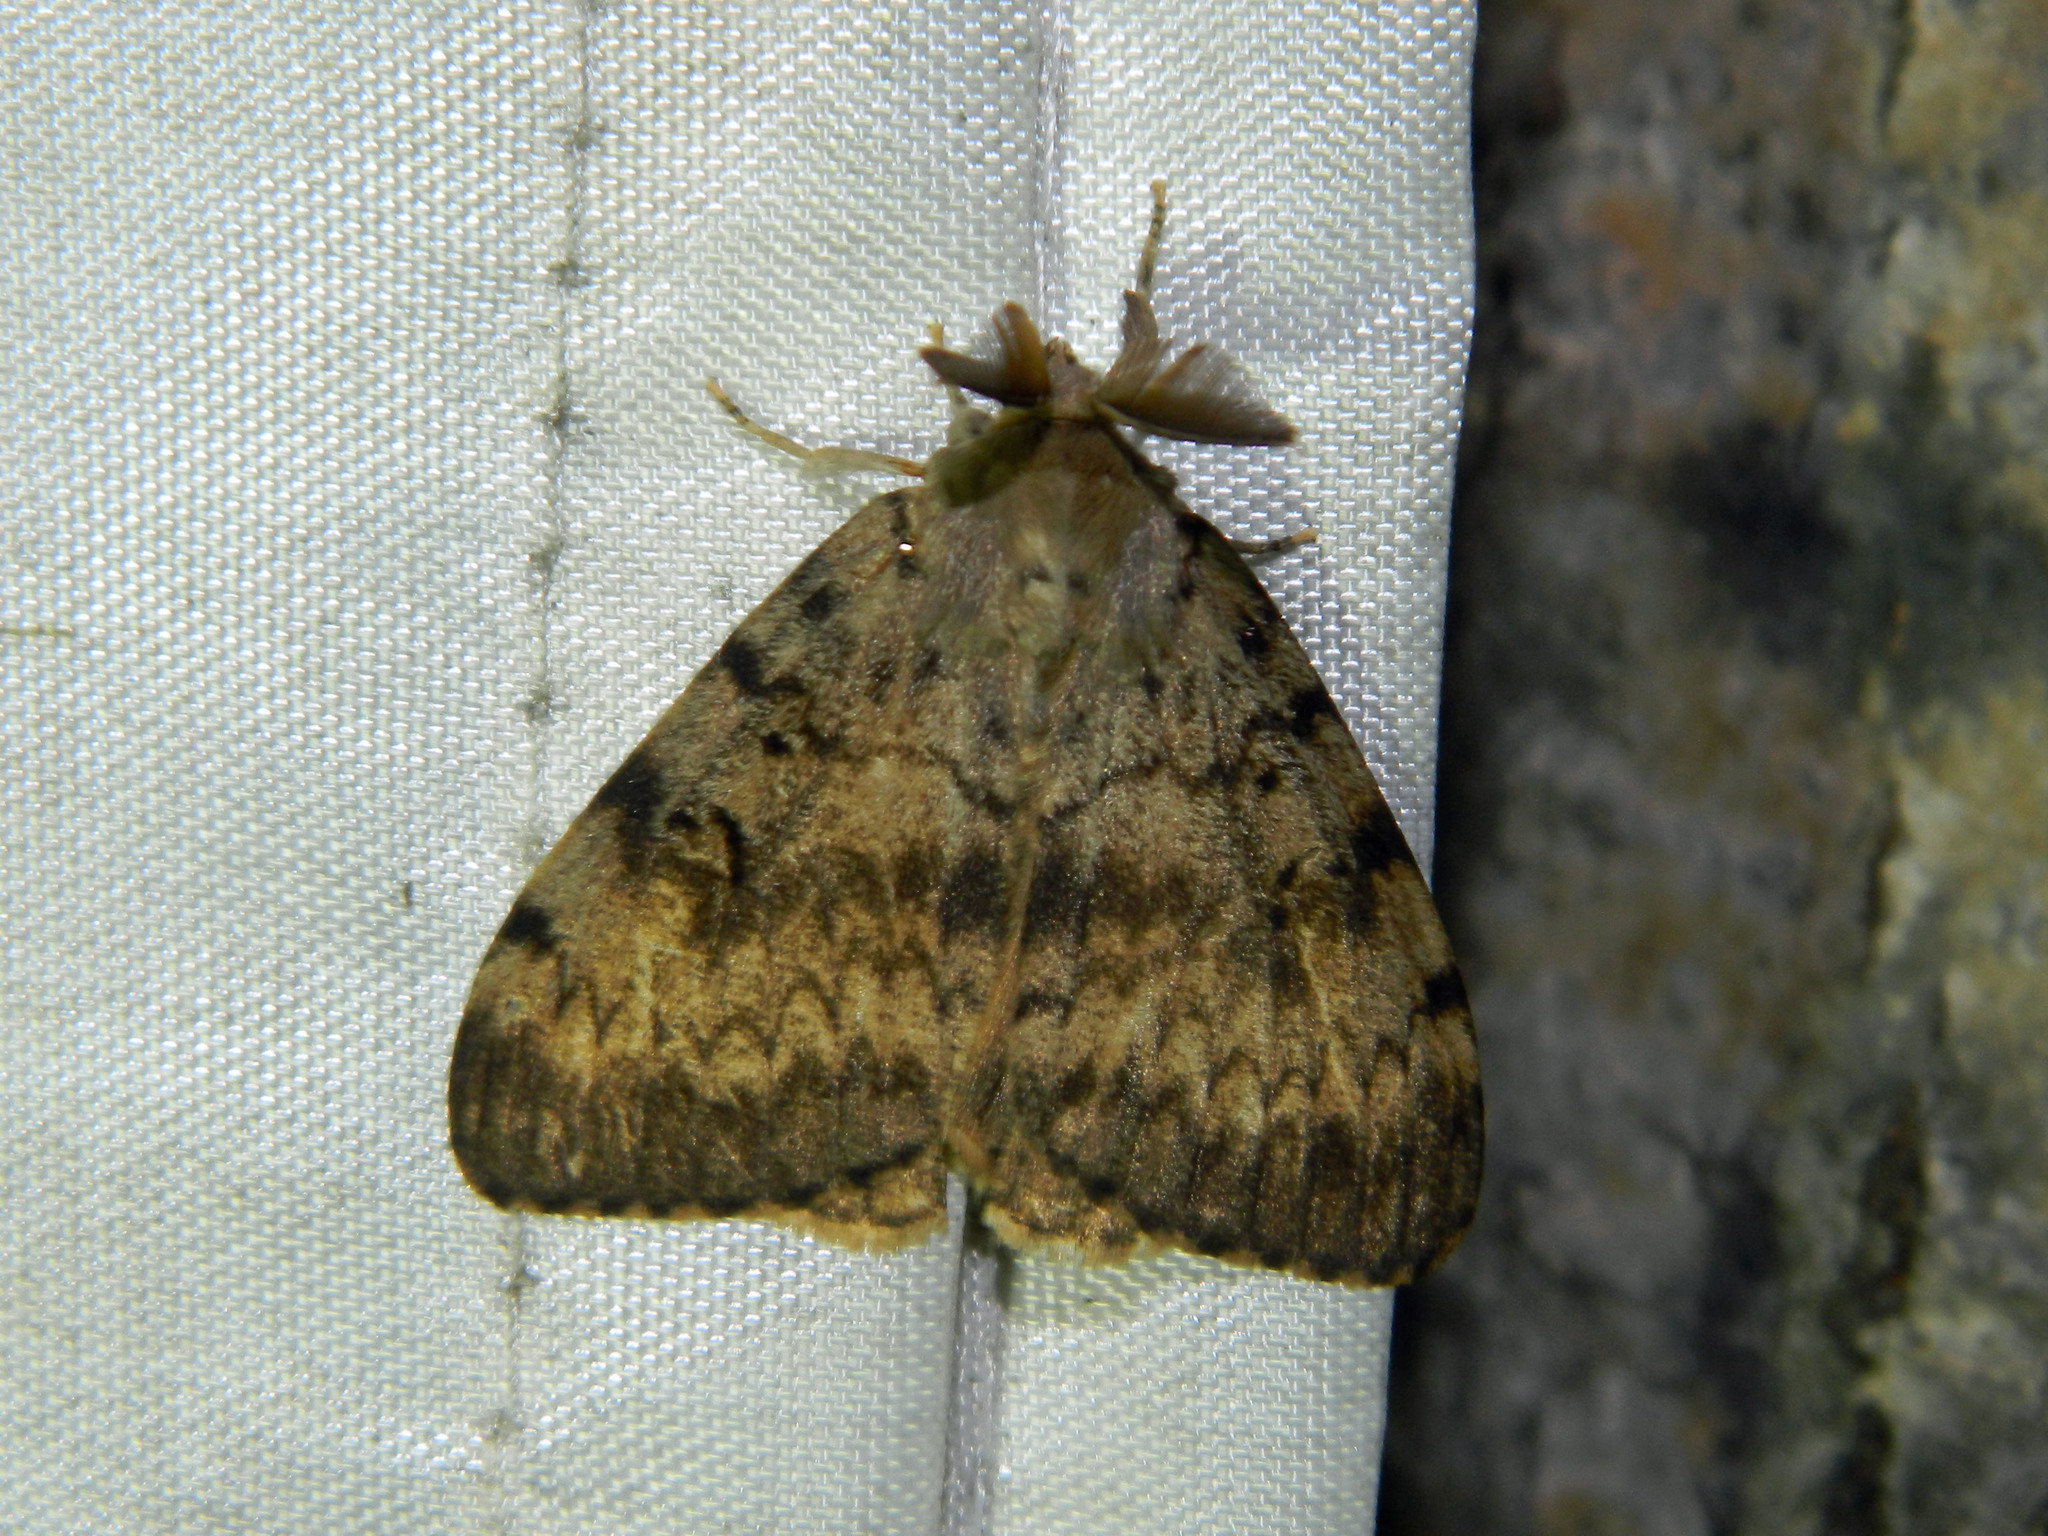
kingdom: Animalia
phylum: Arthropoda
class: Insecta
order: Lepidoptera
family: Erebidae
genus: Lymantria
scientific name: Lymantria dispar
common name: Gypsy moth
